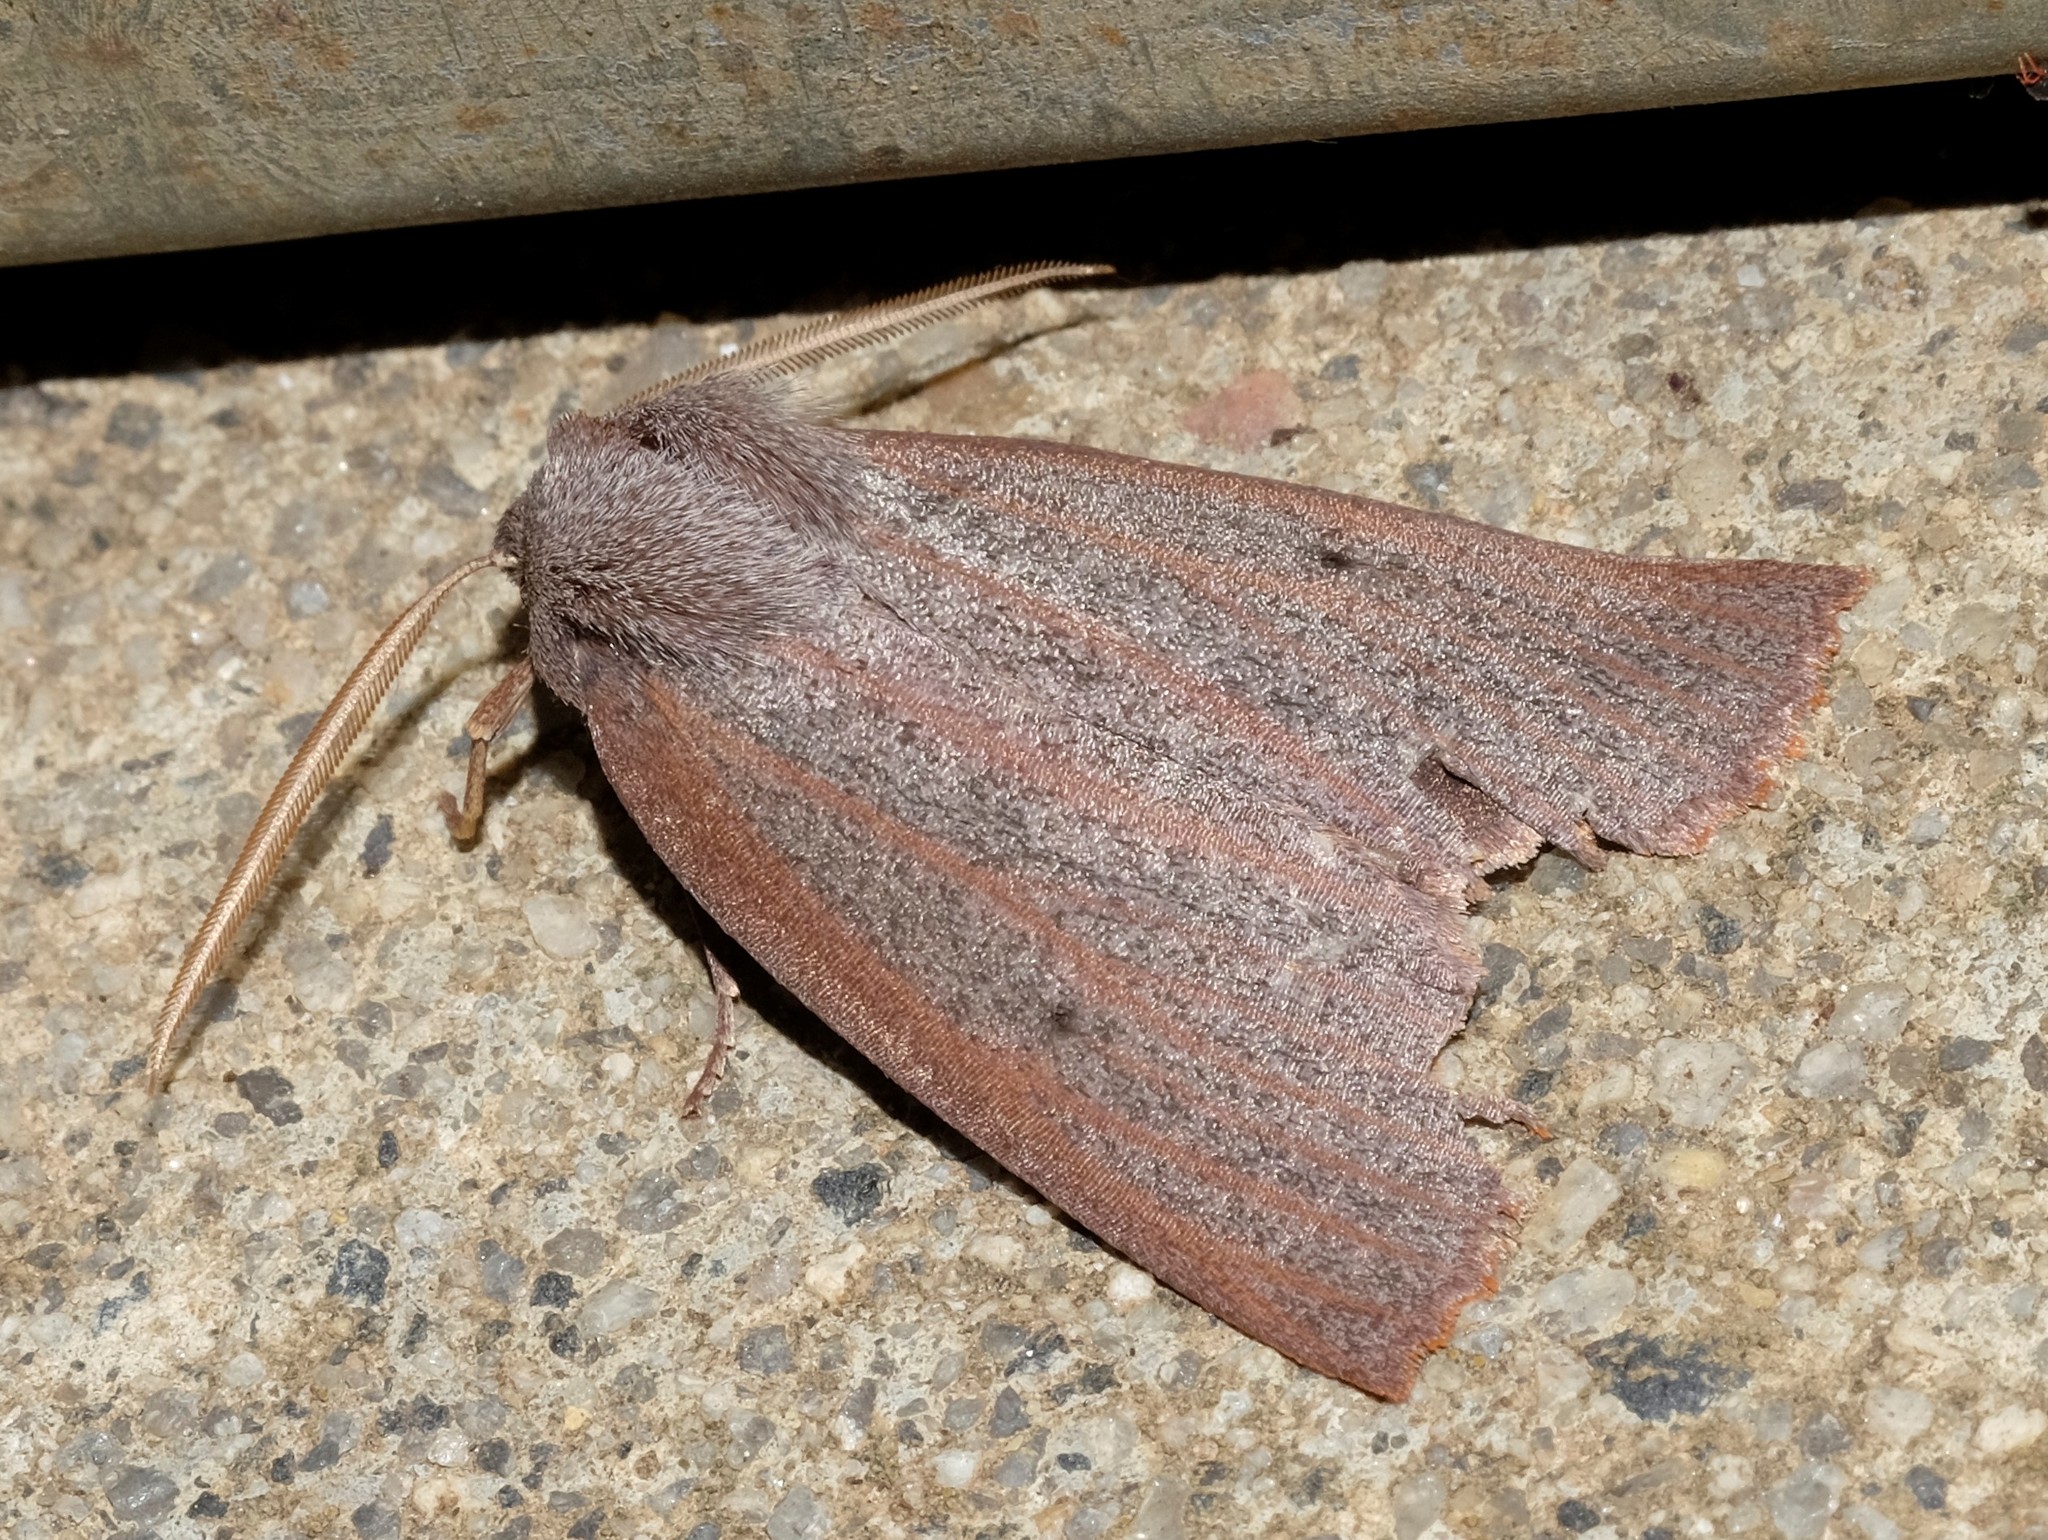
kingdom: Animalia
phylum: Arthropoda
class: Insecta
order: Lepidoptera
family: Geometridae
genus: Paralaea
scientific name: Paralaea porphyrinaria
